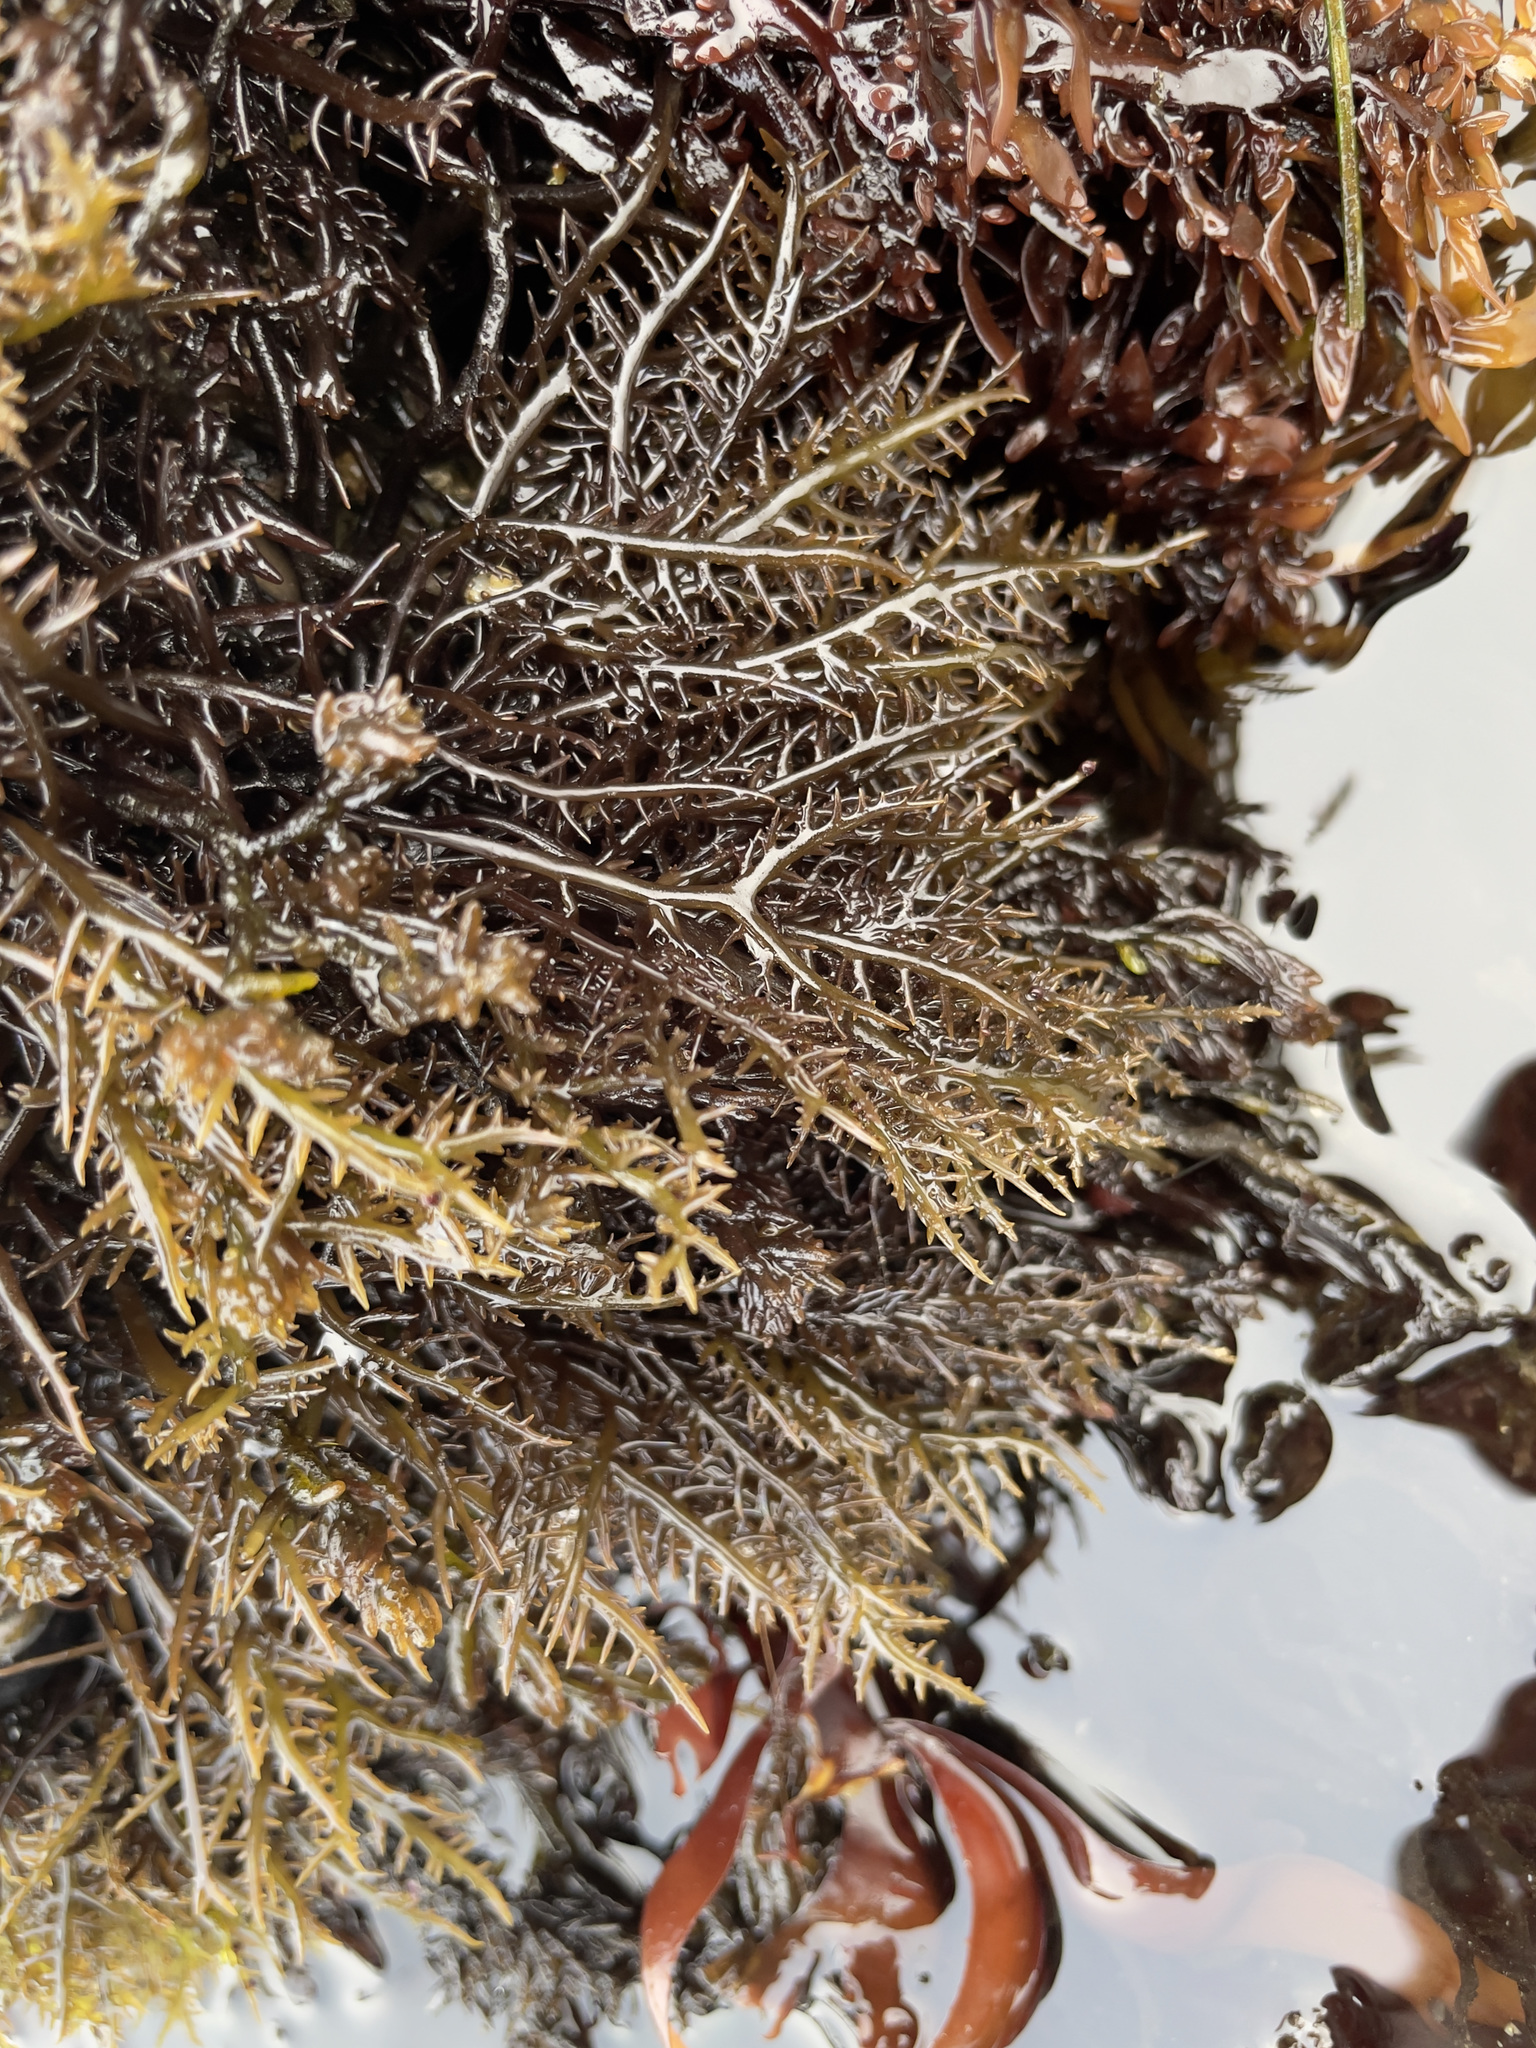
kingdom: Plantae
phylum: Rhodophyta
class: Florideophyceae
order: Gigartinales
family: Gigartinaceae
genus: Chondracanthus
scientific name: Chondracanthus canaliculatus
